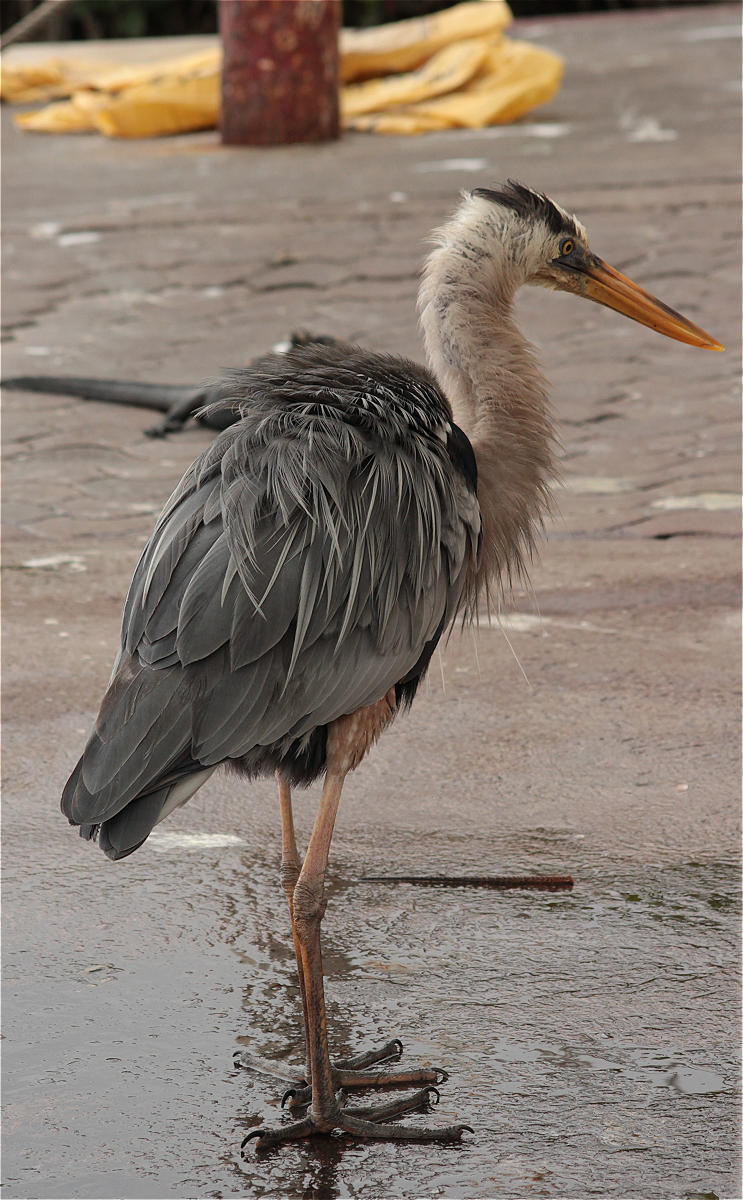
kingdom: Animalia
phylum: Chordata
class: Aves
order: Pelecaniformes
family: Ardeidae
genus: Ardea
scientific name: Ardea herodias
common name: Great blue heron
